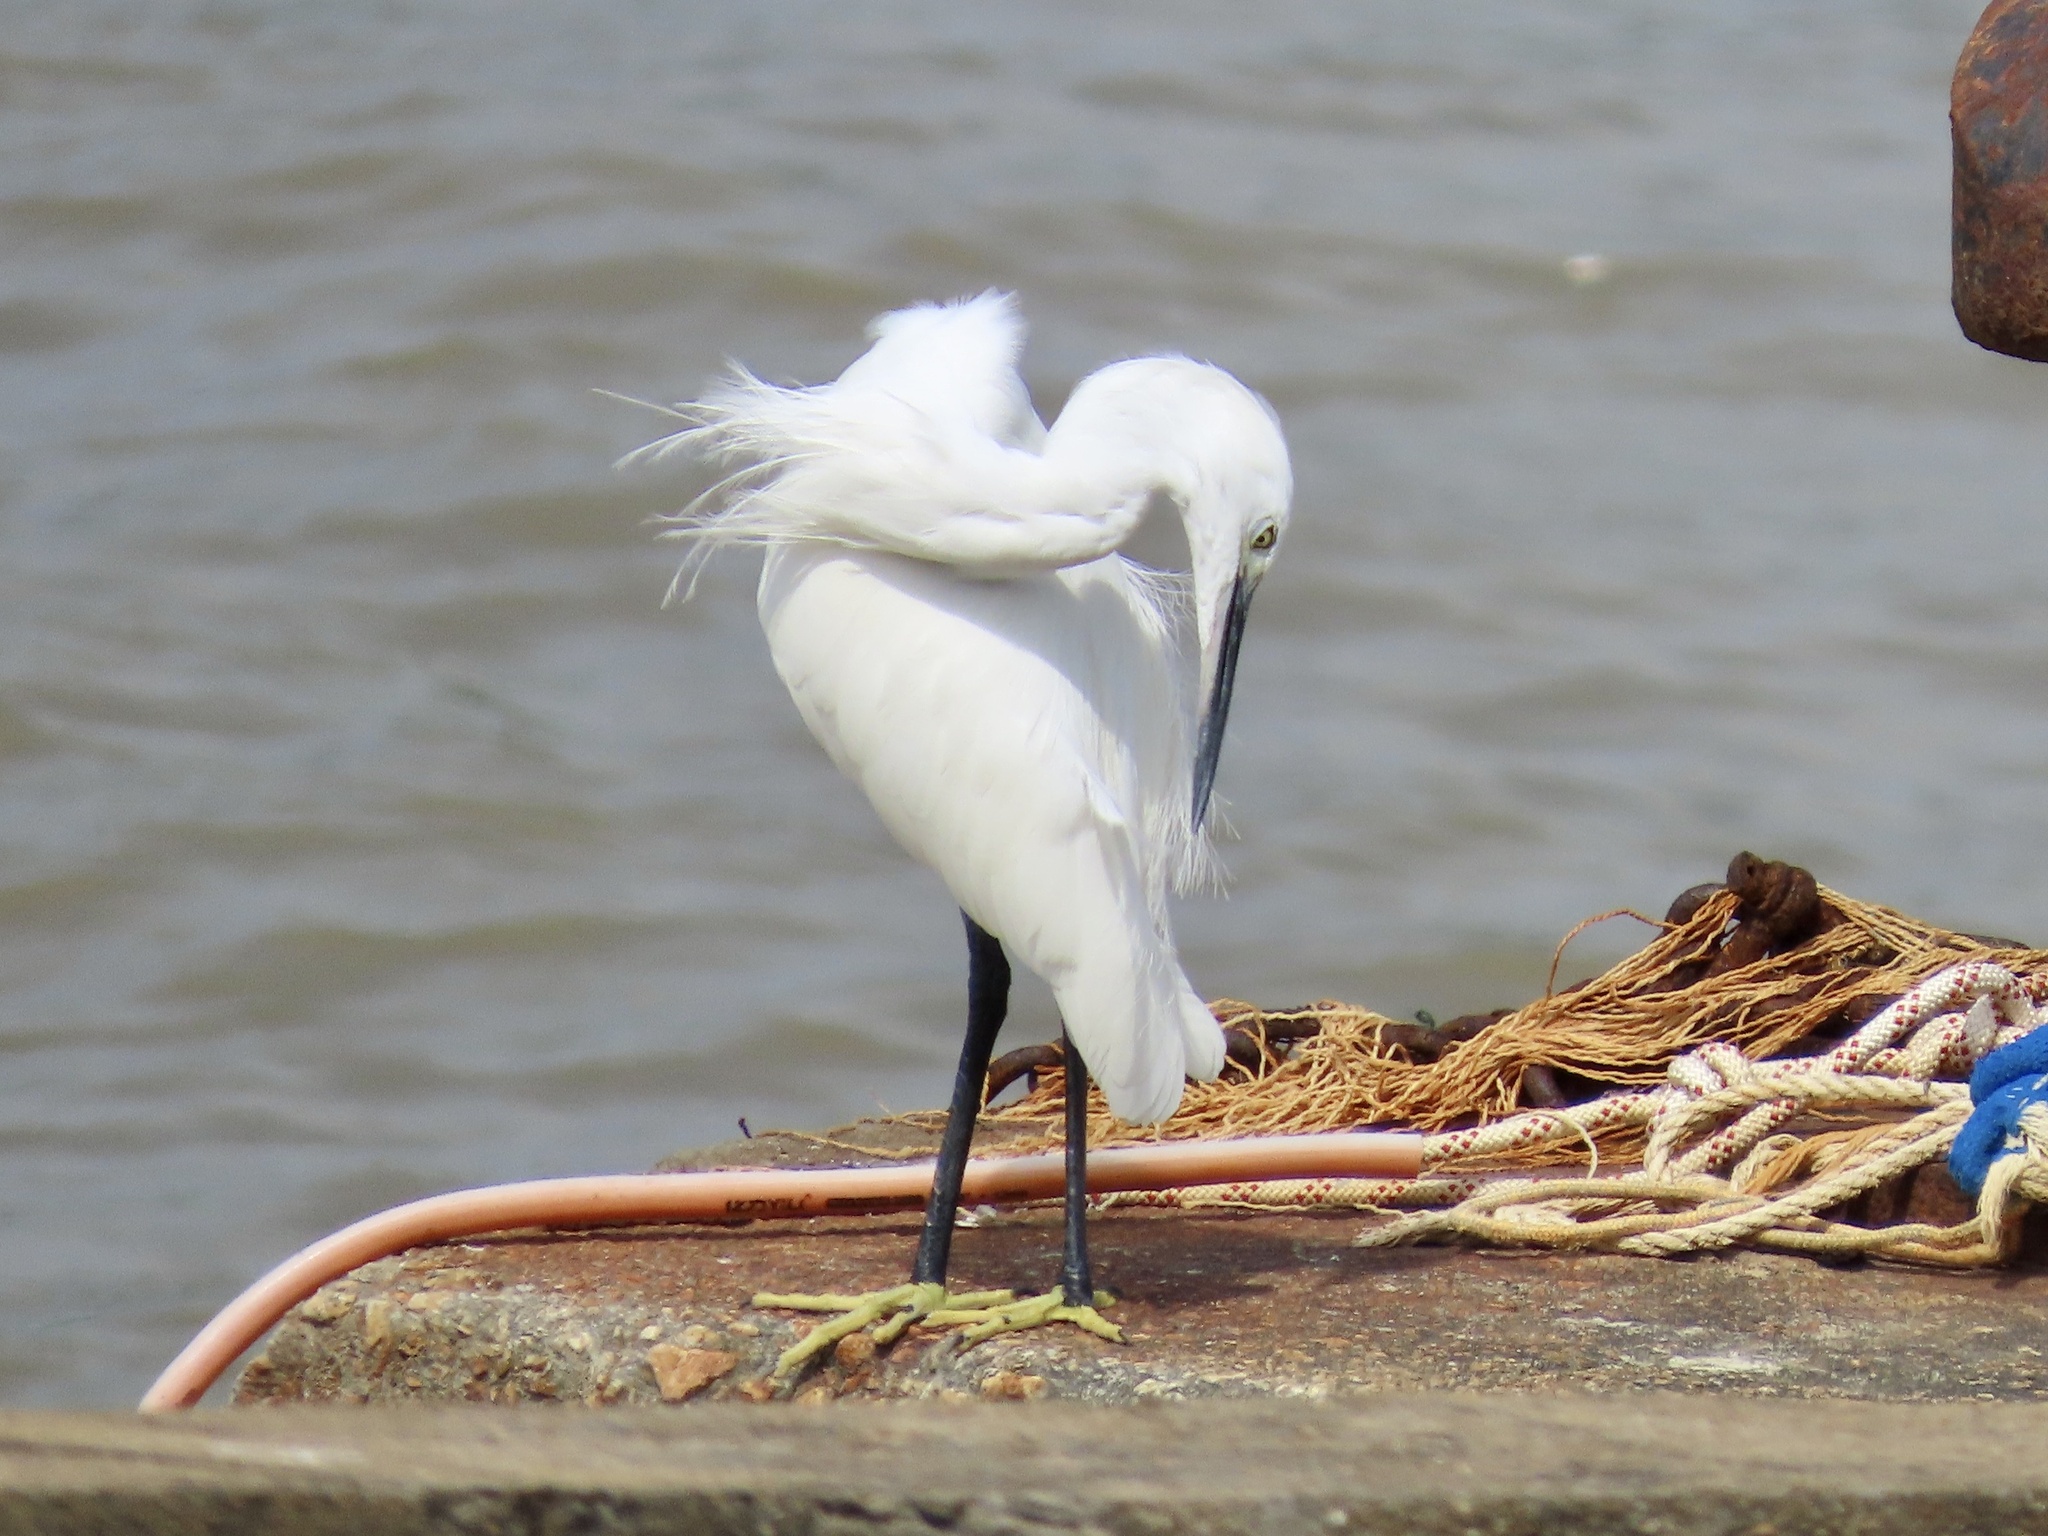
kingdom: Animalia
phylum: Chordata
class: Aves
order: Pelecaniformes
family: Ardeidae
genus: Egretta
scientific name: Egretta garzetta
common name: Little egret
